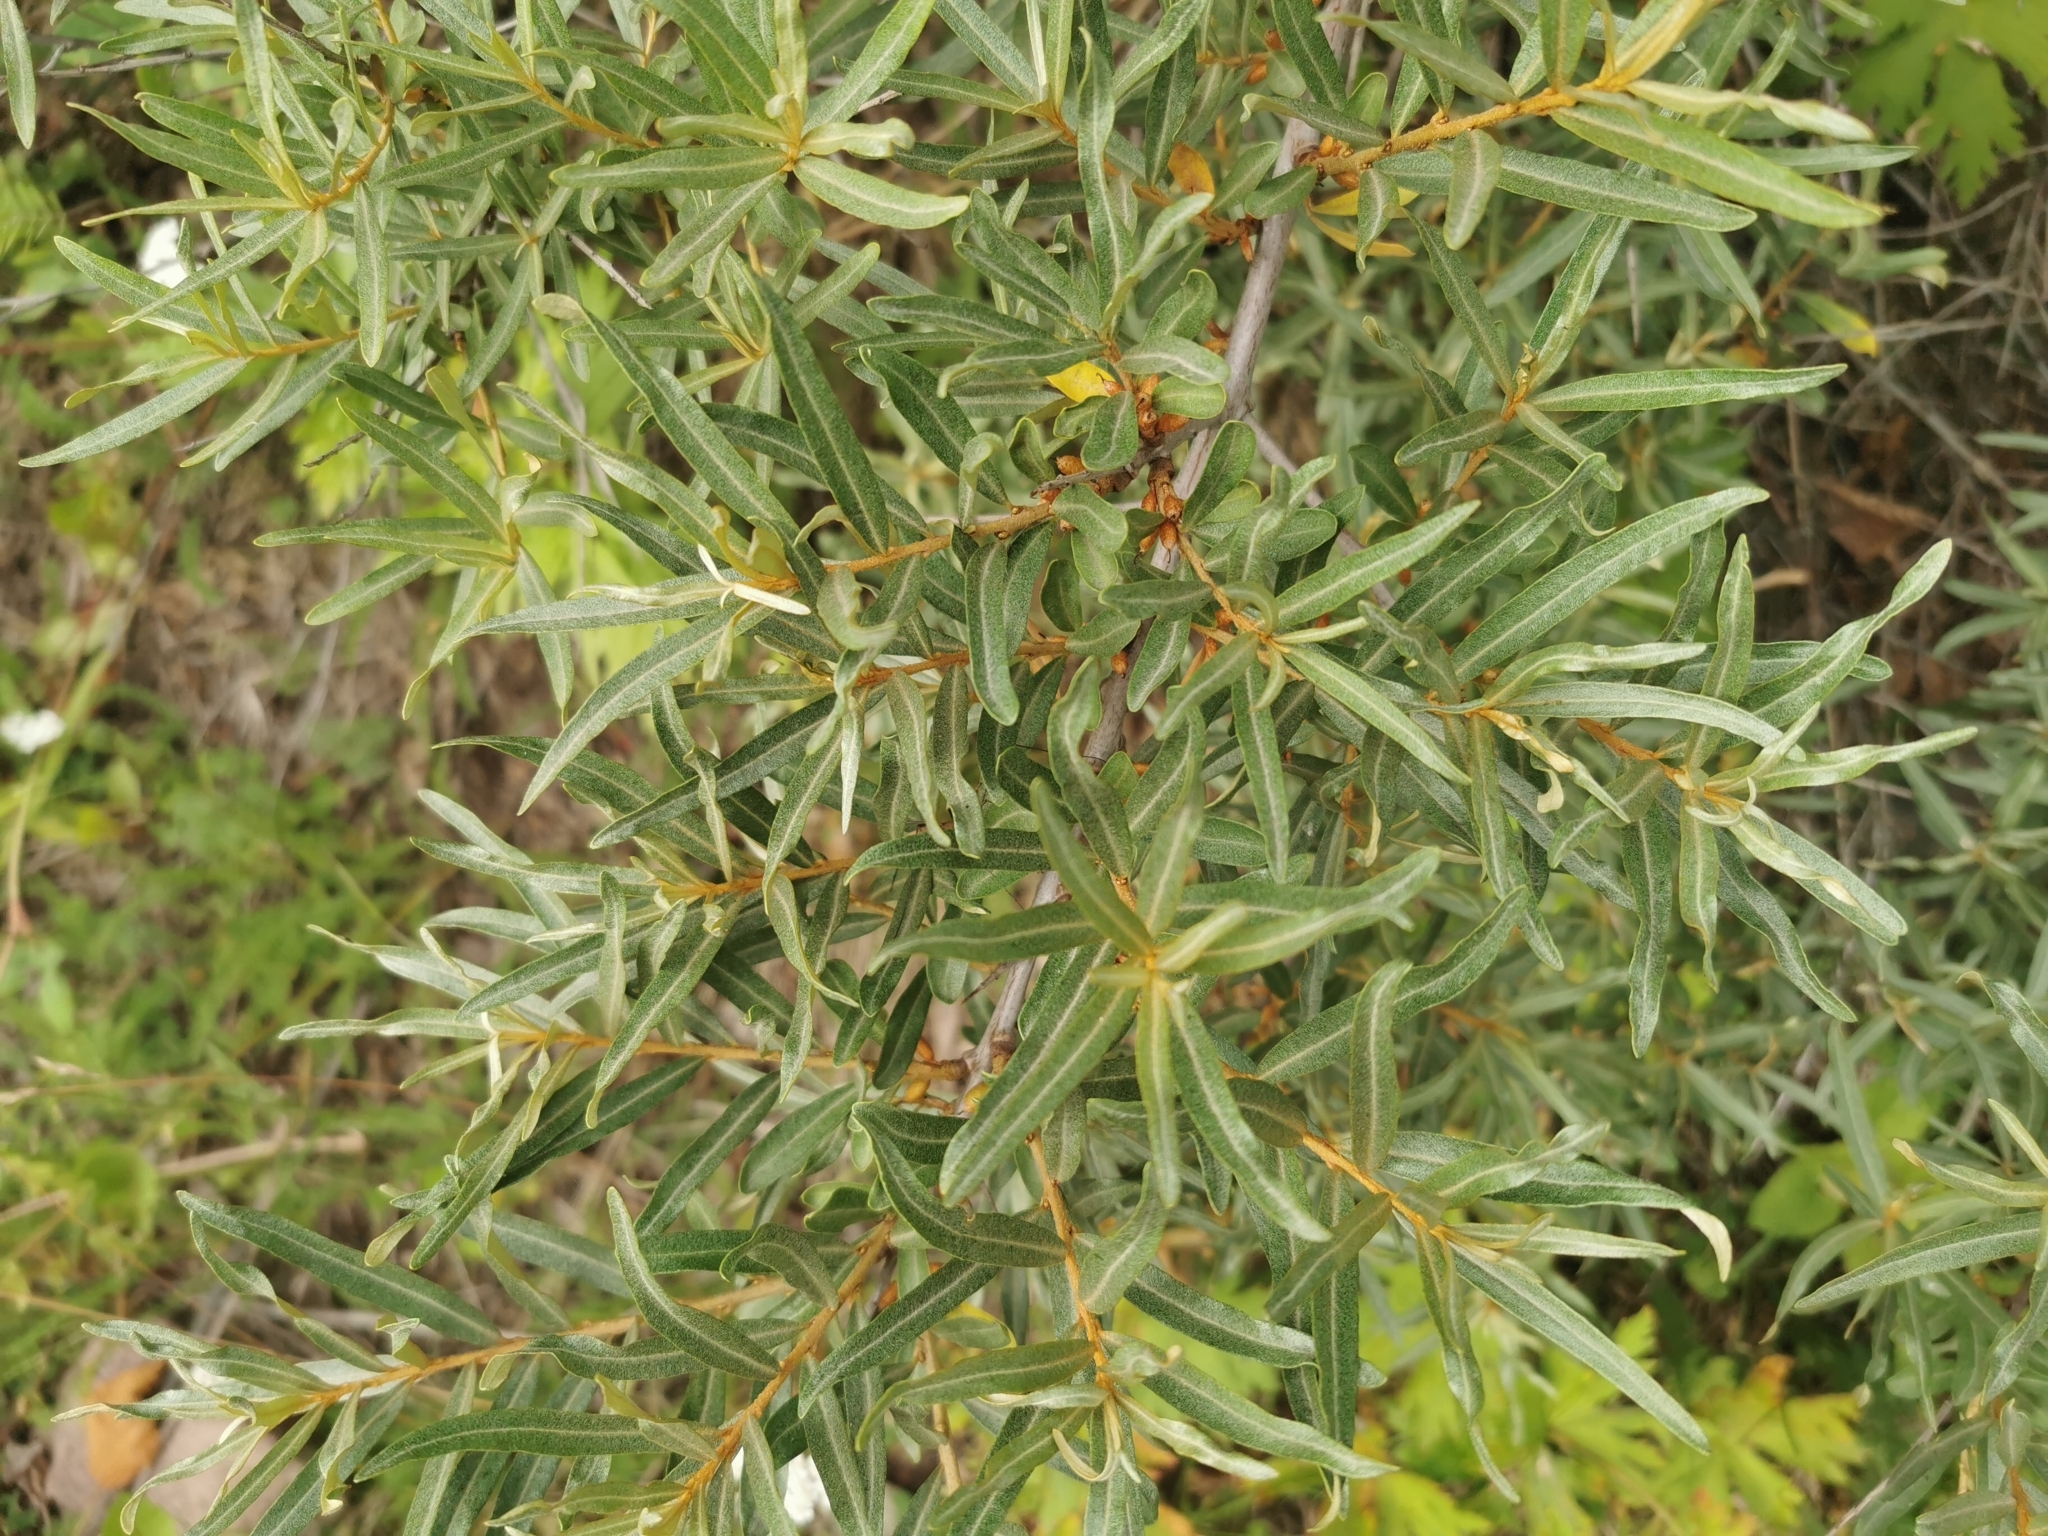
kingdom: Plantae
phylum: Tracheophyta
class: Magnoliopsida
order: Rosales
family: Elaeagnaceae
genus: Hippophae
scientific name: Hippophae rhamnoides
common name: Sea-buckthorn
